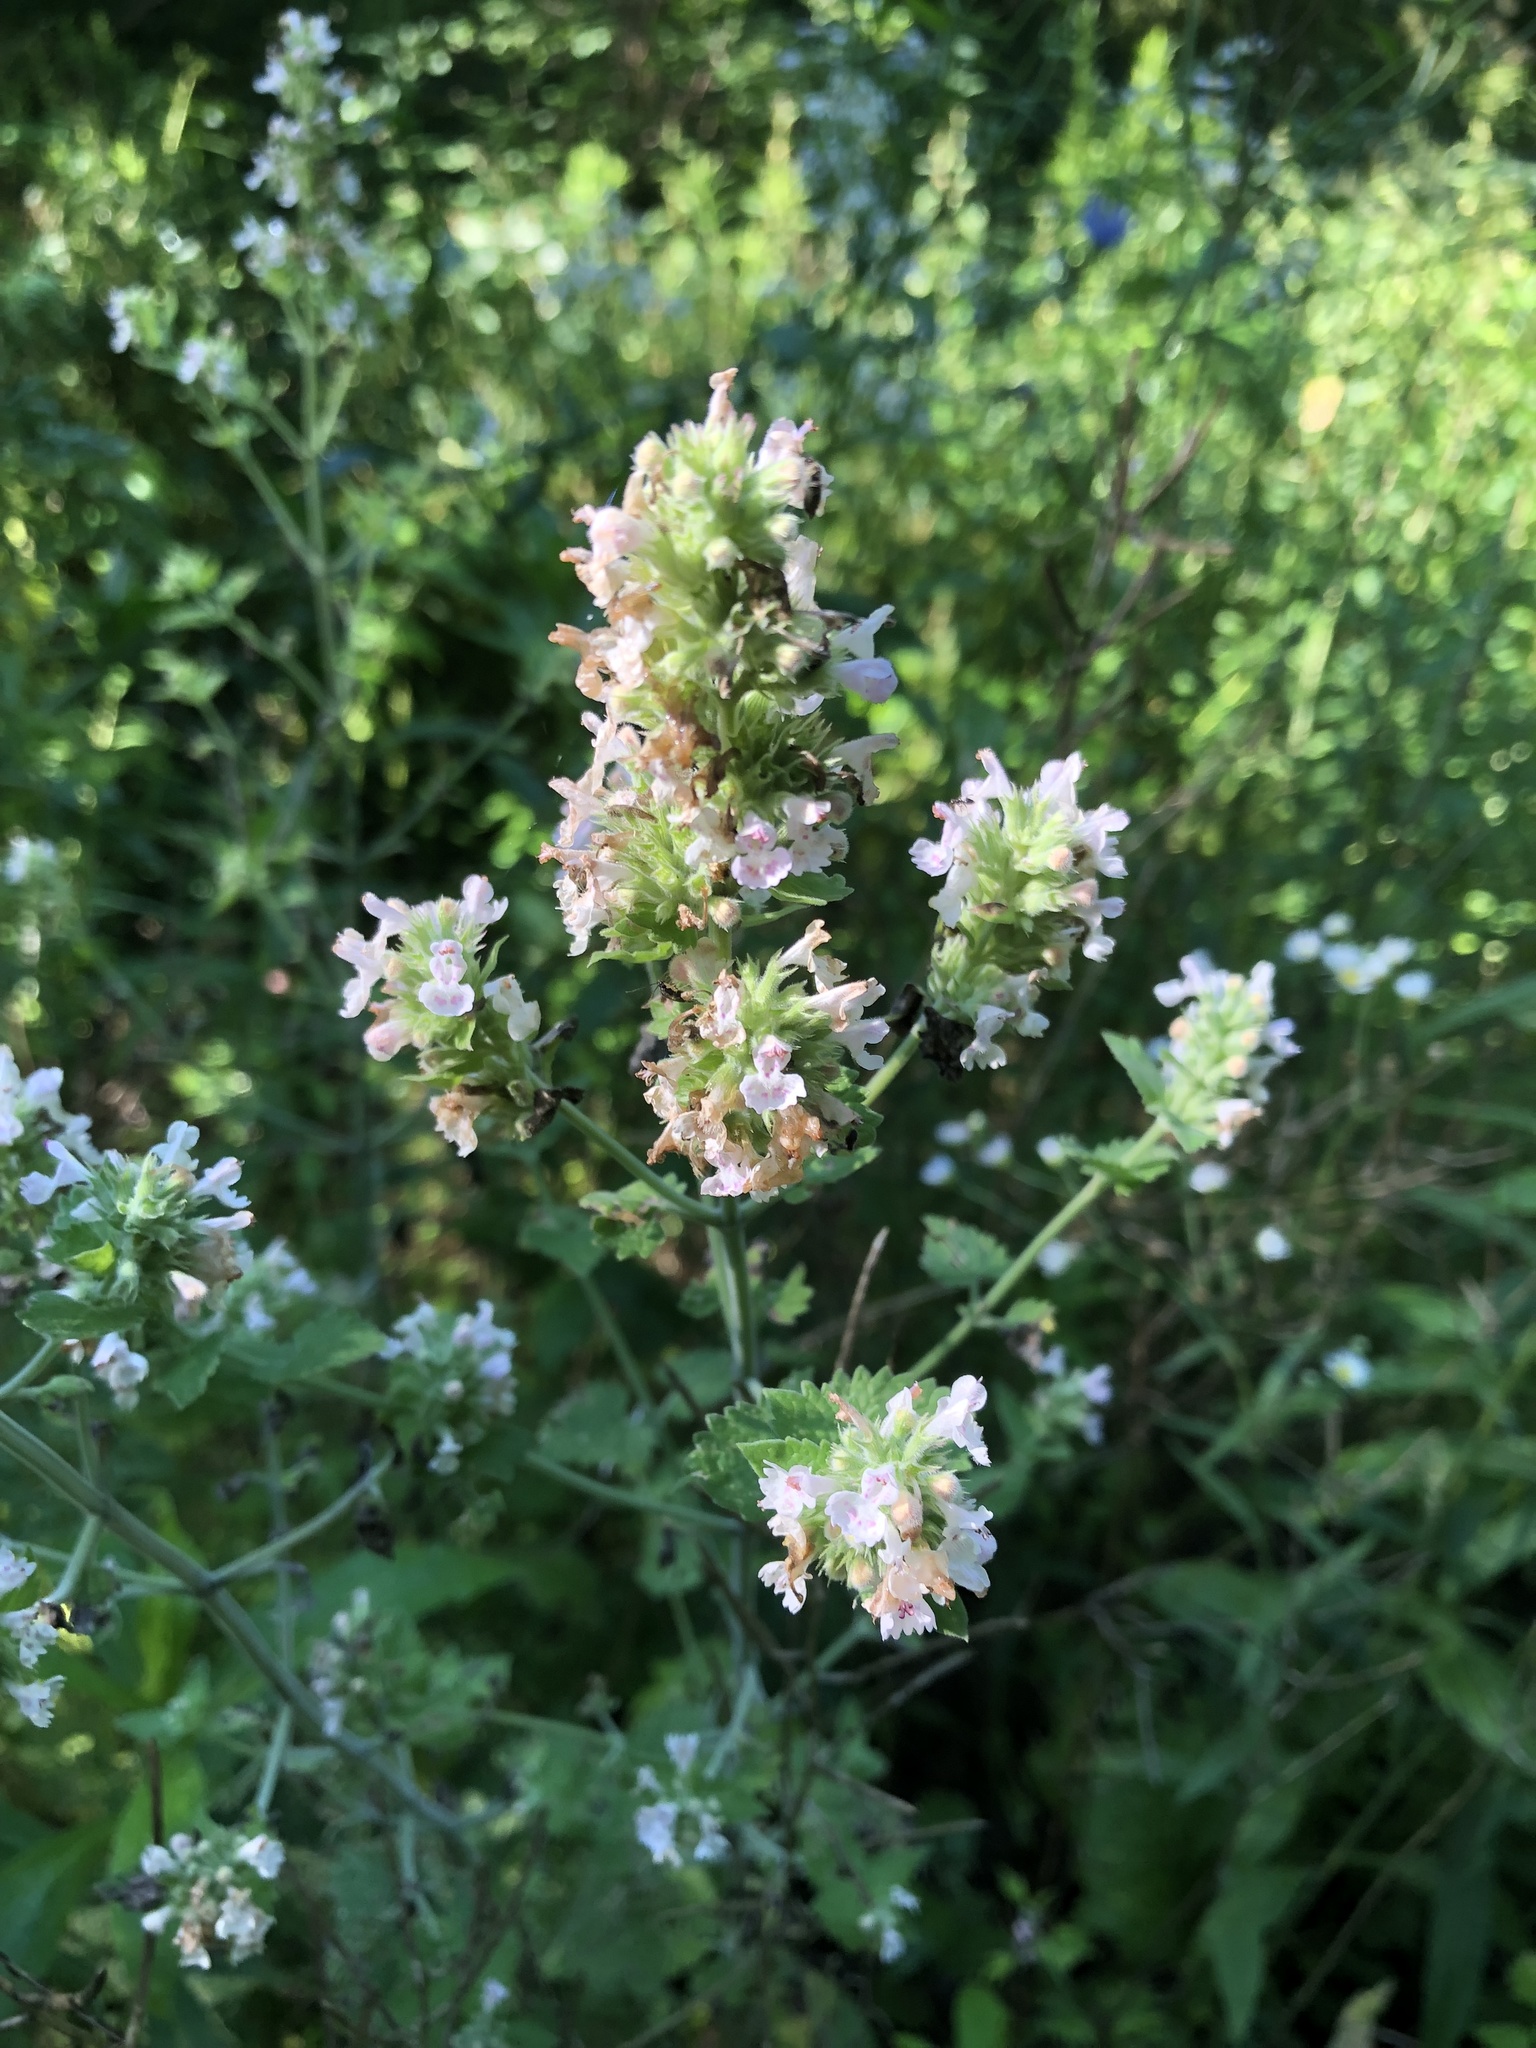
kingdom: Plantae
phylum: Tracheophyta
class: Magnoliopsida
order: Lamiales
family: Lamiaceae
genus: Nepeta
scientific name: Nepeta cataria
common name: Catnip
